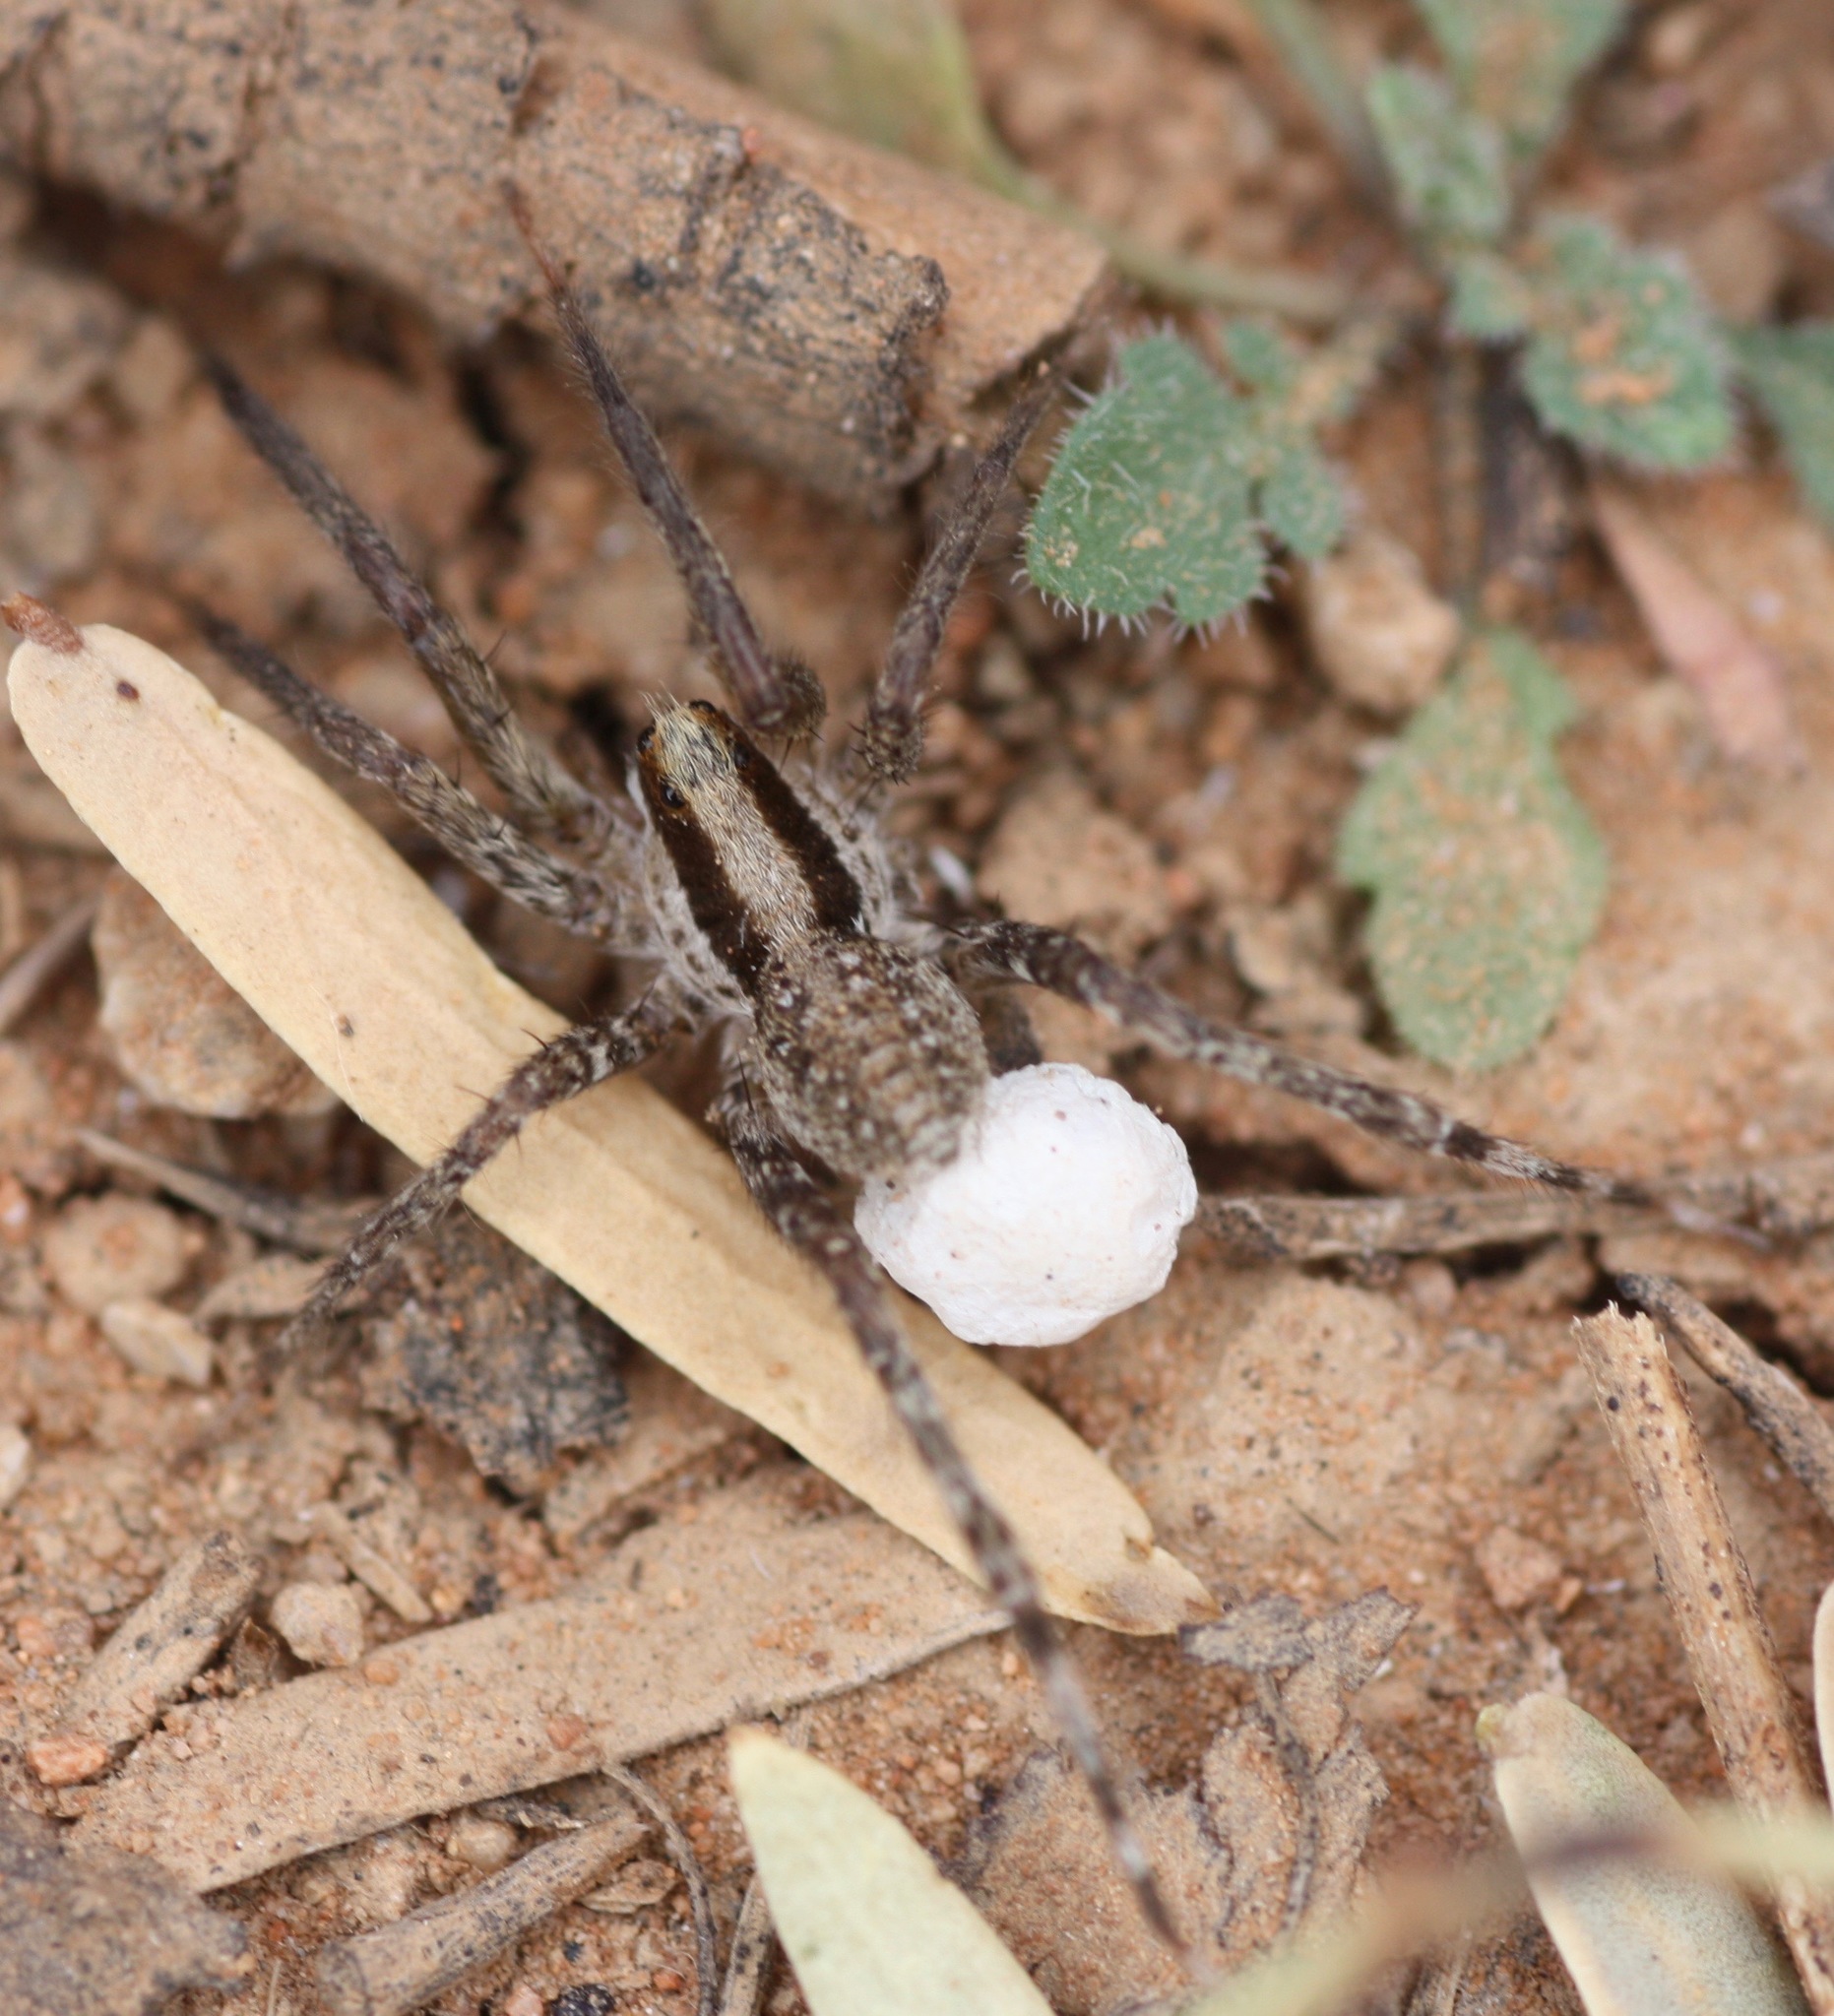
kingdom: Animalia
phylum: Arthropoda
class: Arachnida
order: Araneae
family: Lycosidae
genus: Camptocosa
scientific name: Camptocosa parallela
